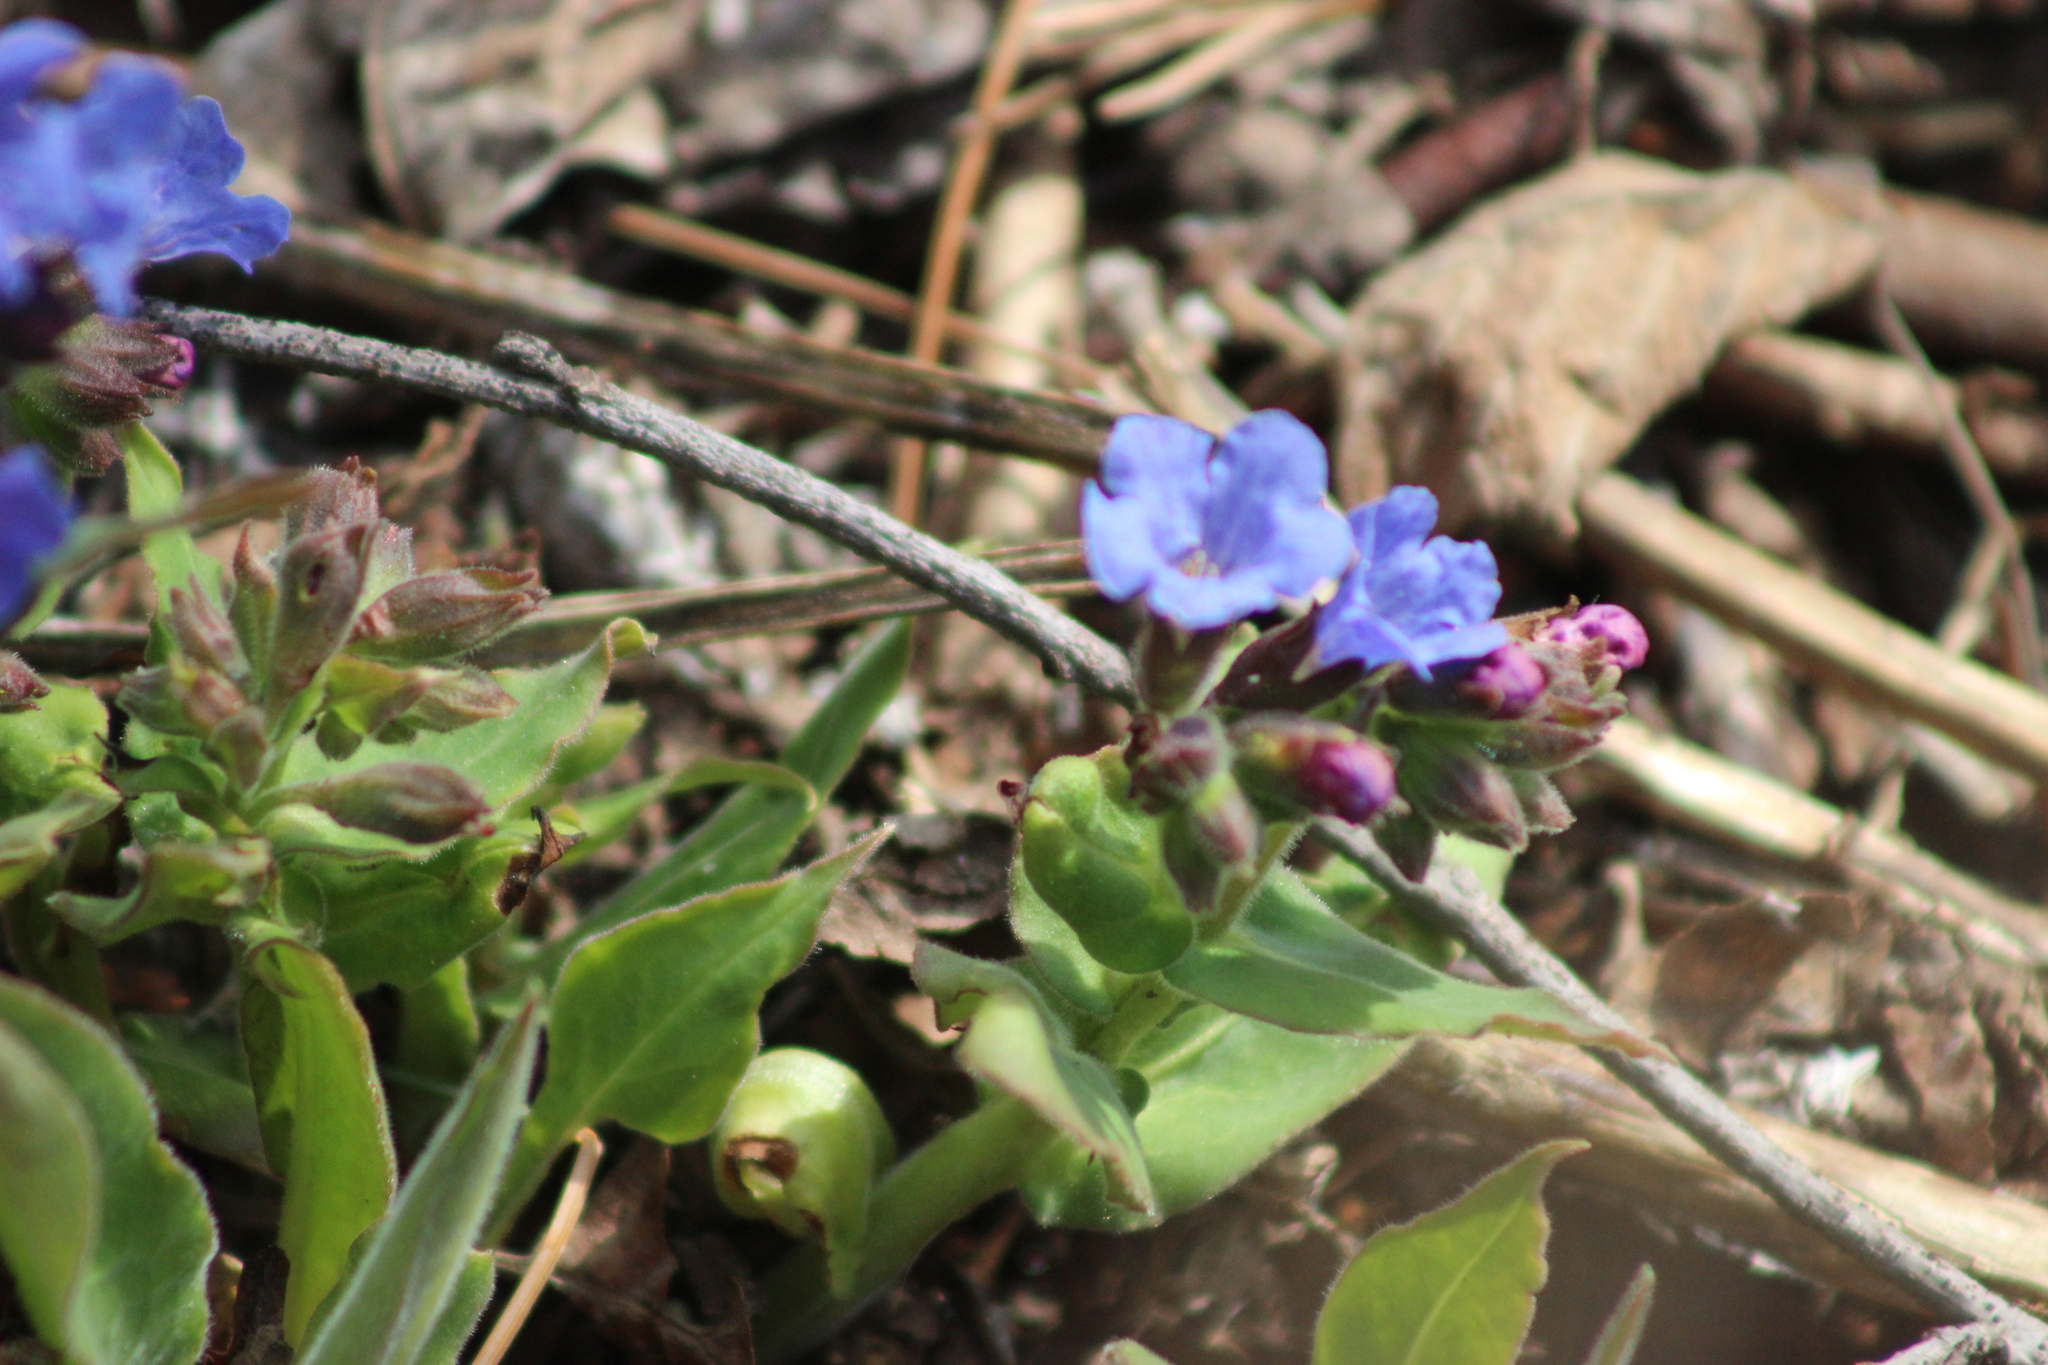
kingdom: Plantae
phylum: Tracheophyta
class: Magnoliopsida
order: Boraginales
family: Boraginaceae
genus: Pulmonaria
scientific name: Pulmonaria mollis
